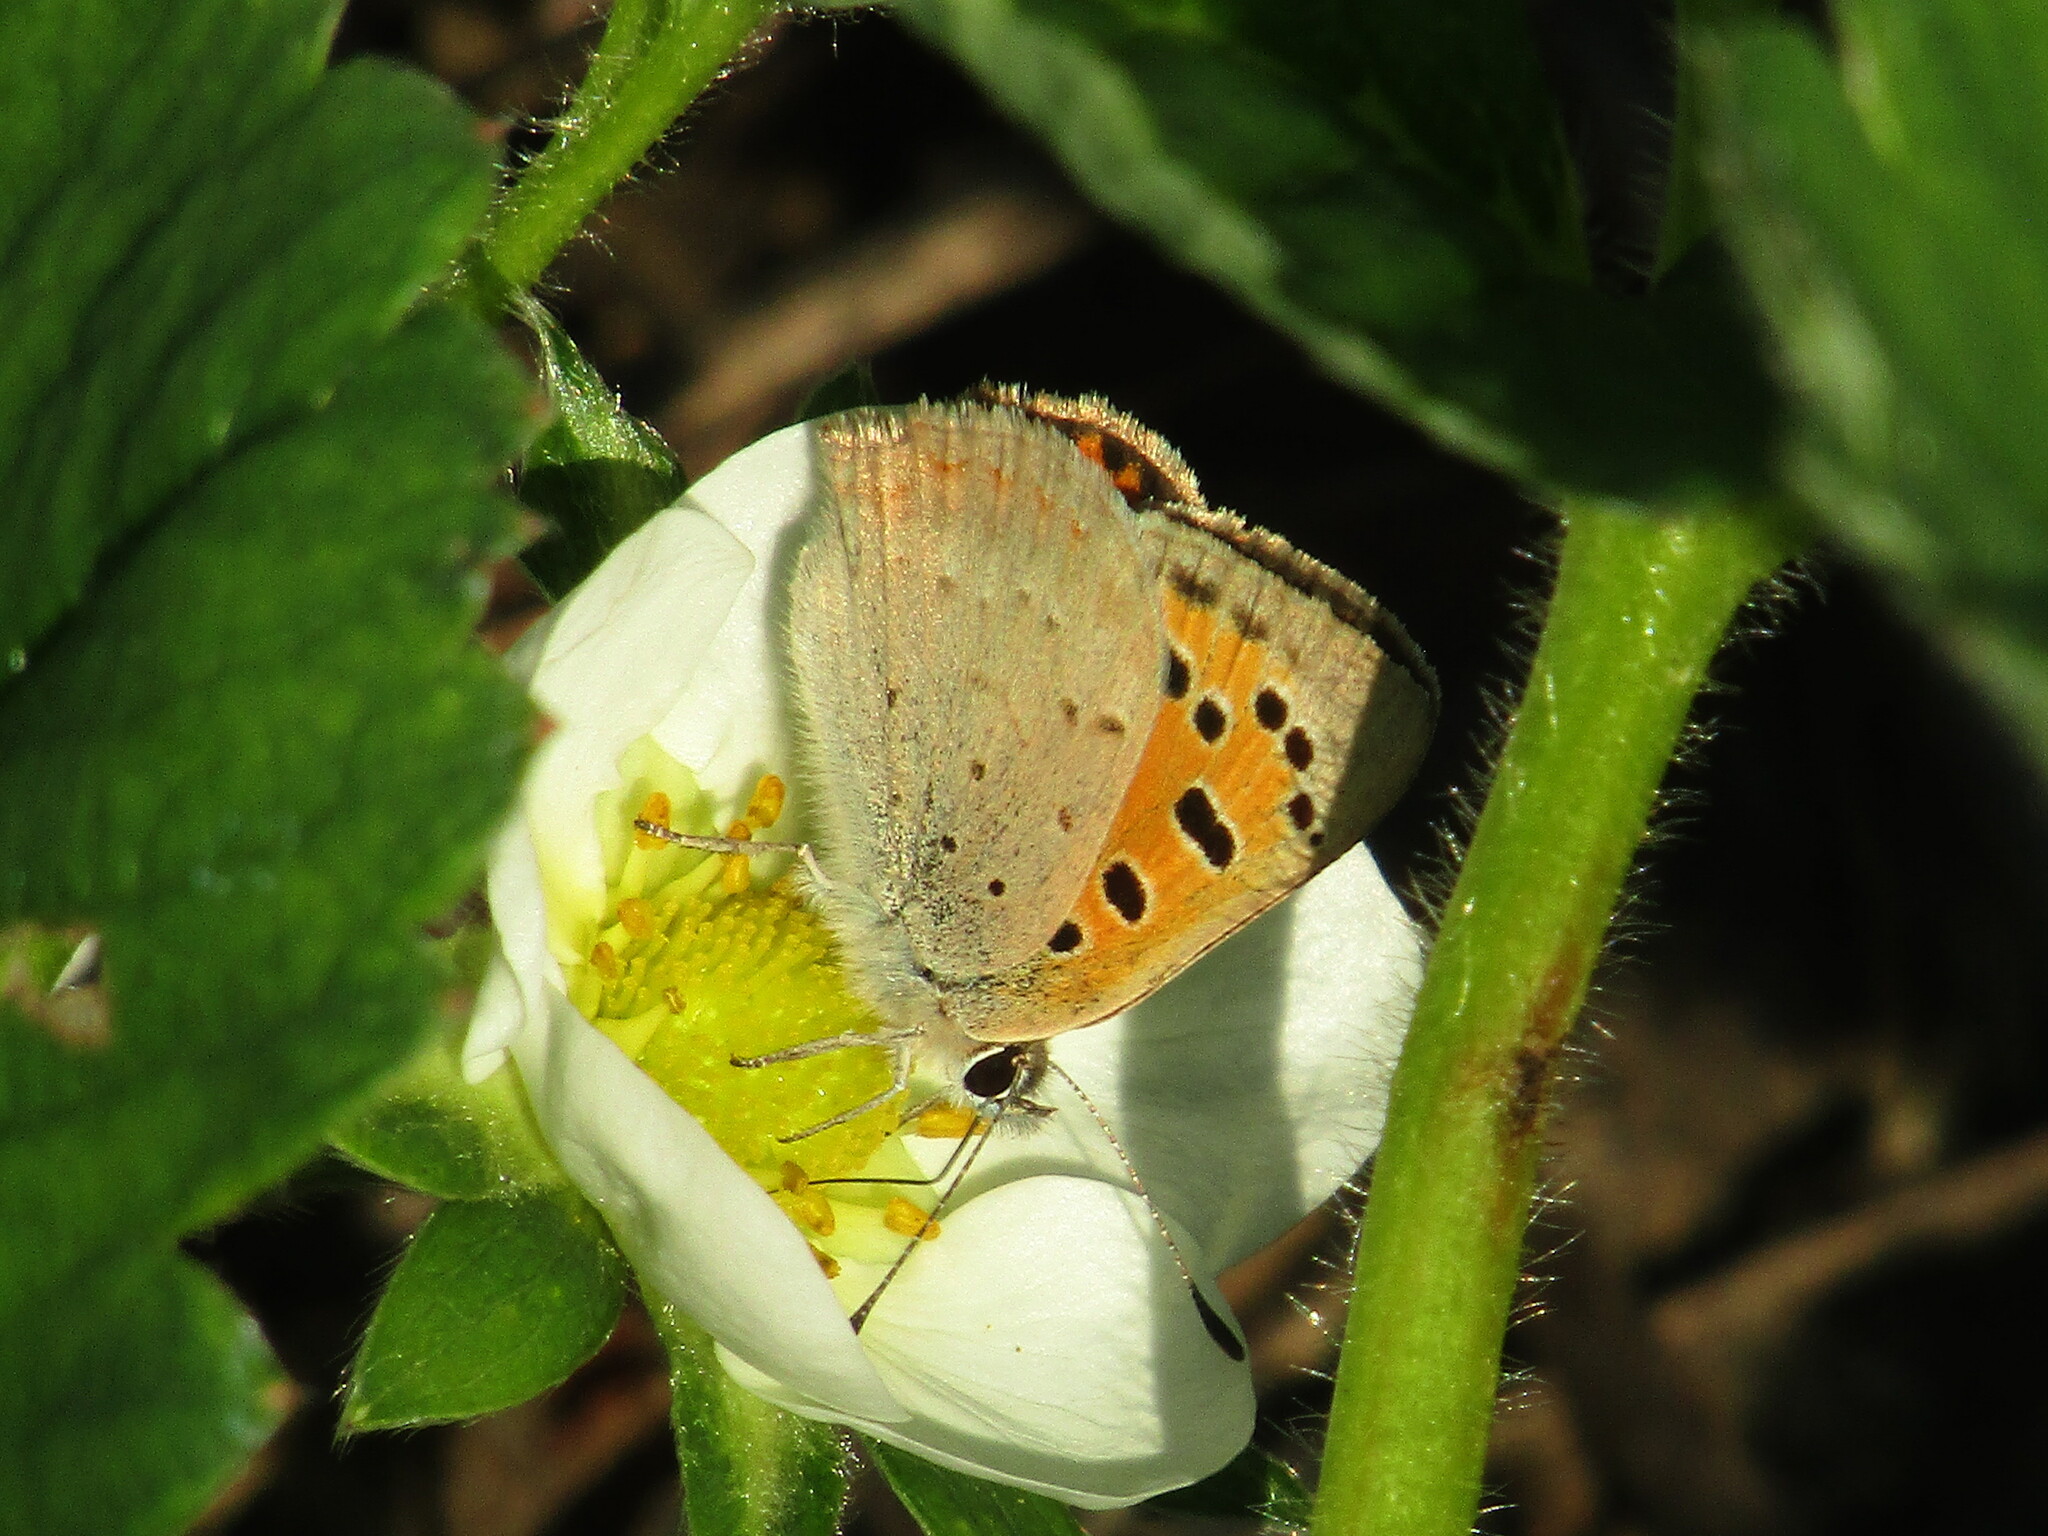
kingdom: Animalia
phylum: Arthropoda
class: Insecta
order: Lepidoptera
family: Lycaenidae
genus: Lycaena
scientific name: Lycaena phlaeas
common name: Small copper
